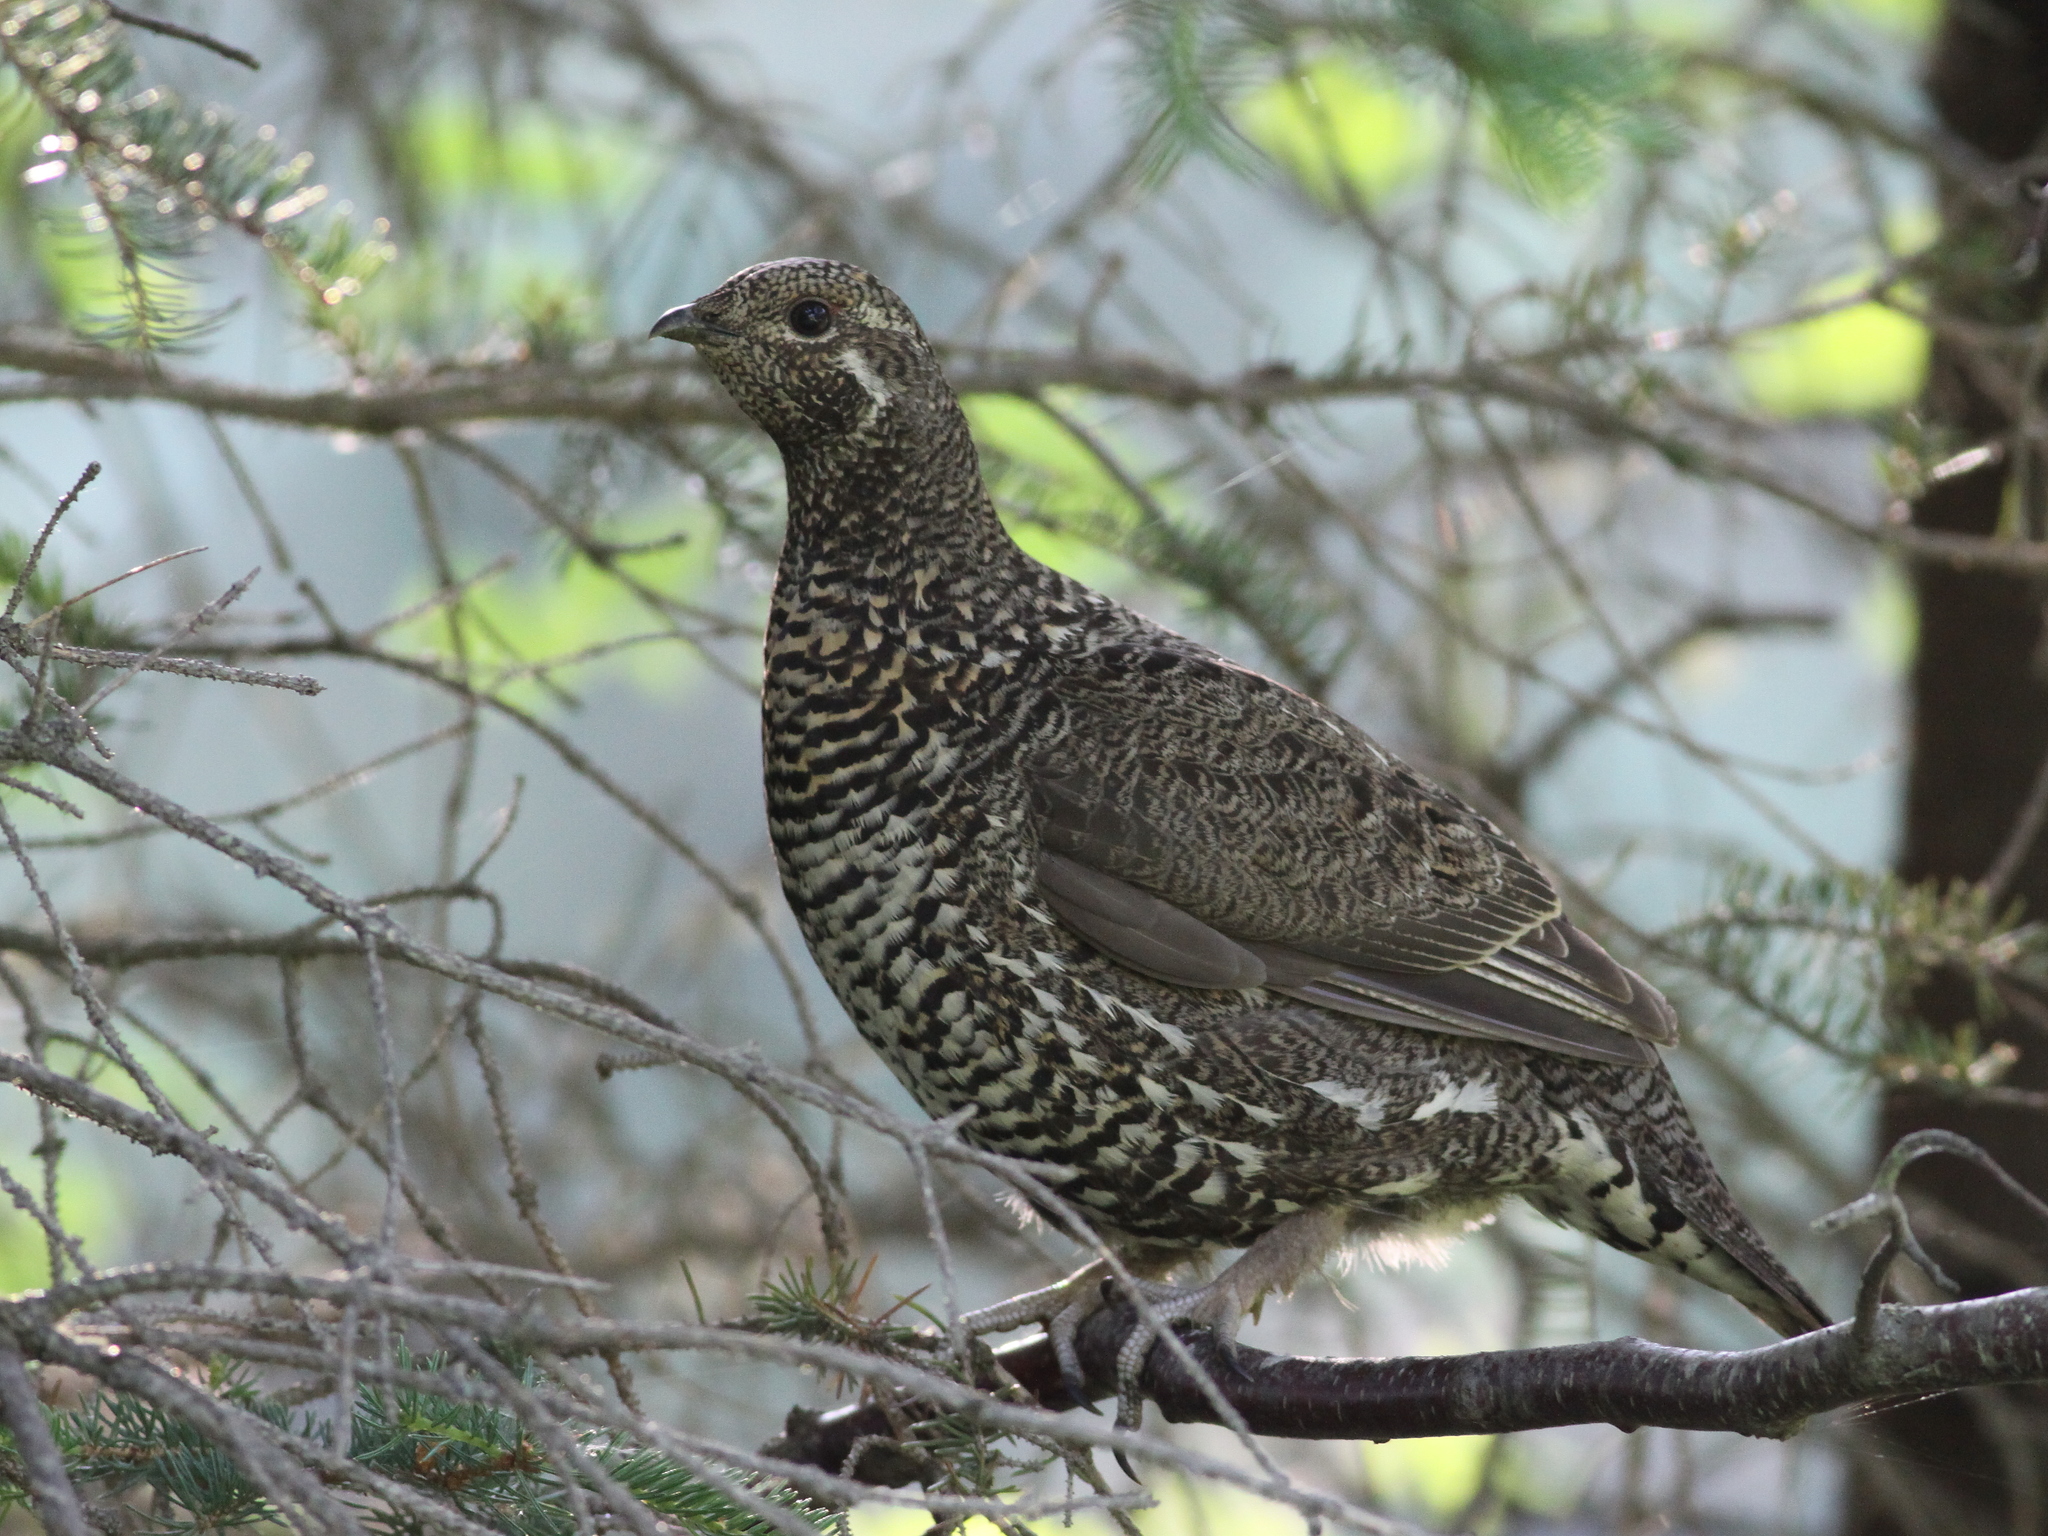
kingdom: Animalia
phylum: Chordata
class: Aves
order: Galliformes
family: Phasianidae
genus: Canachites
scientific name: Canachites canadensis
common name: Spruce grouse
